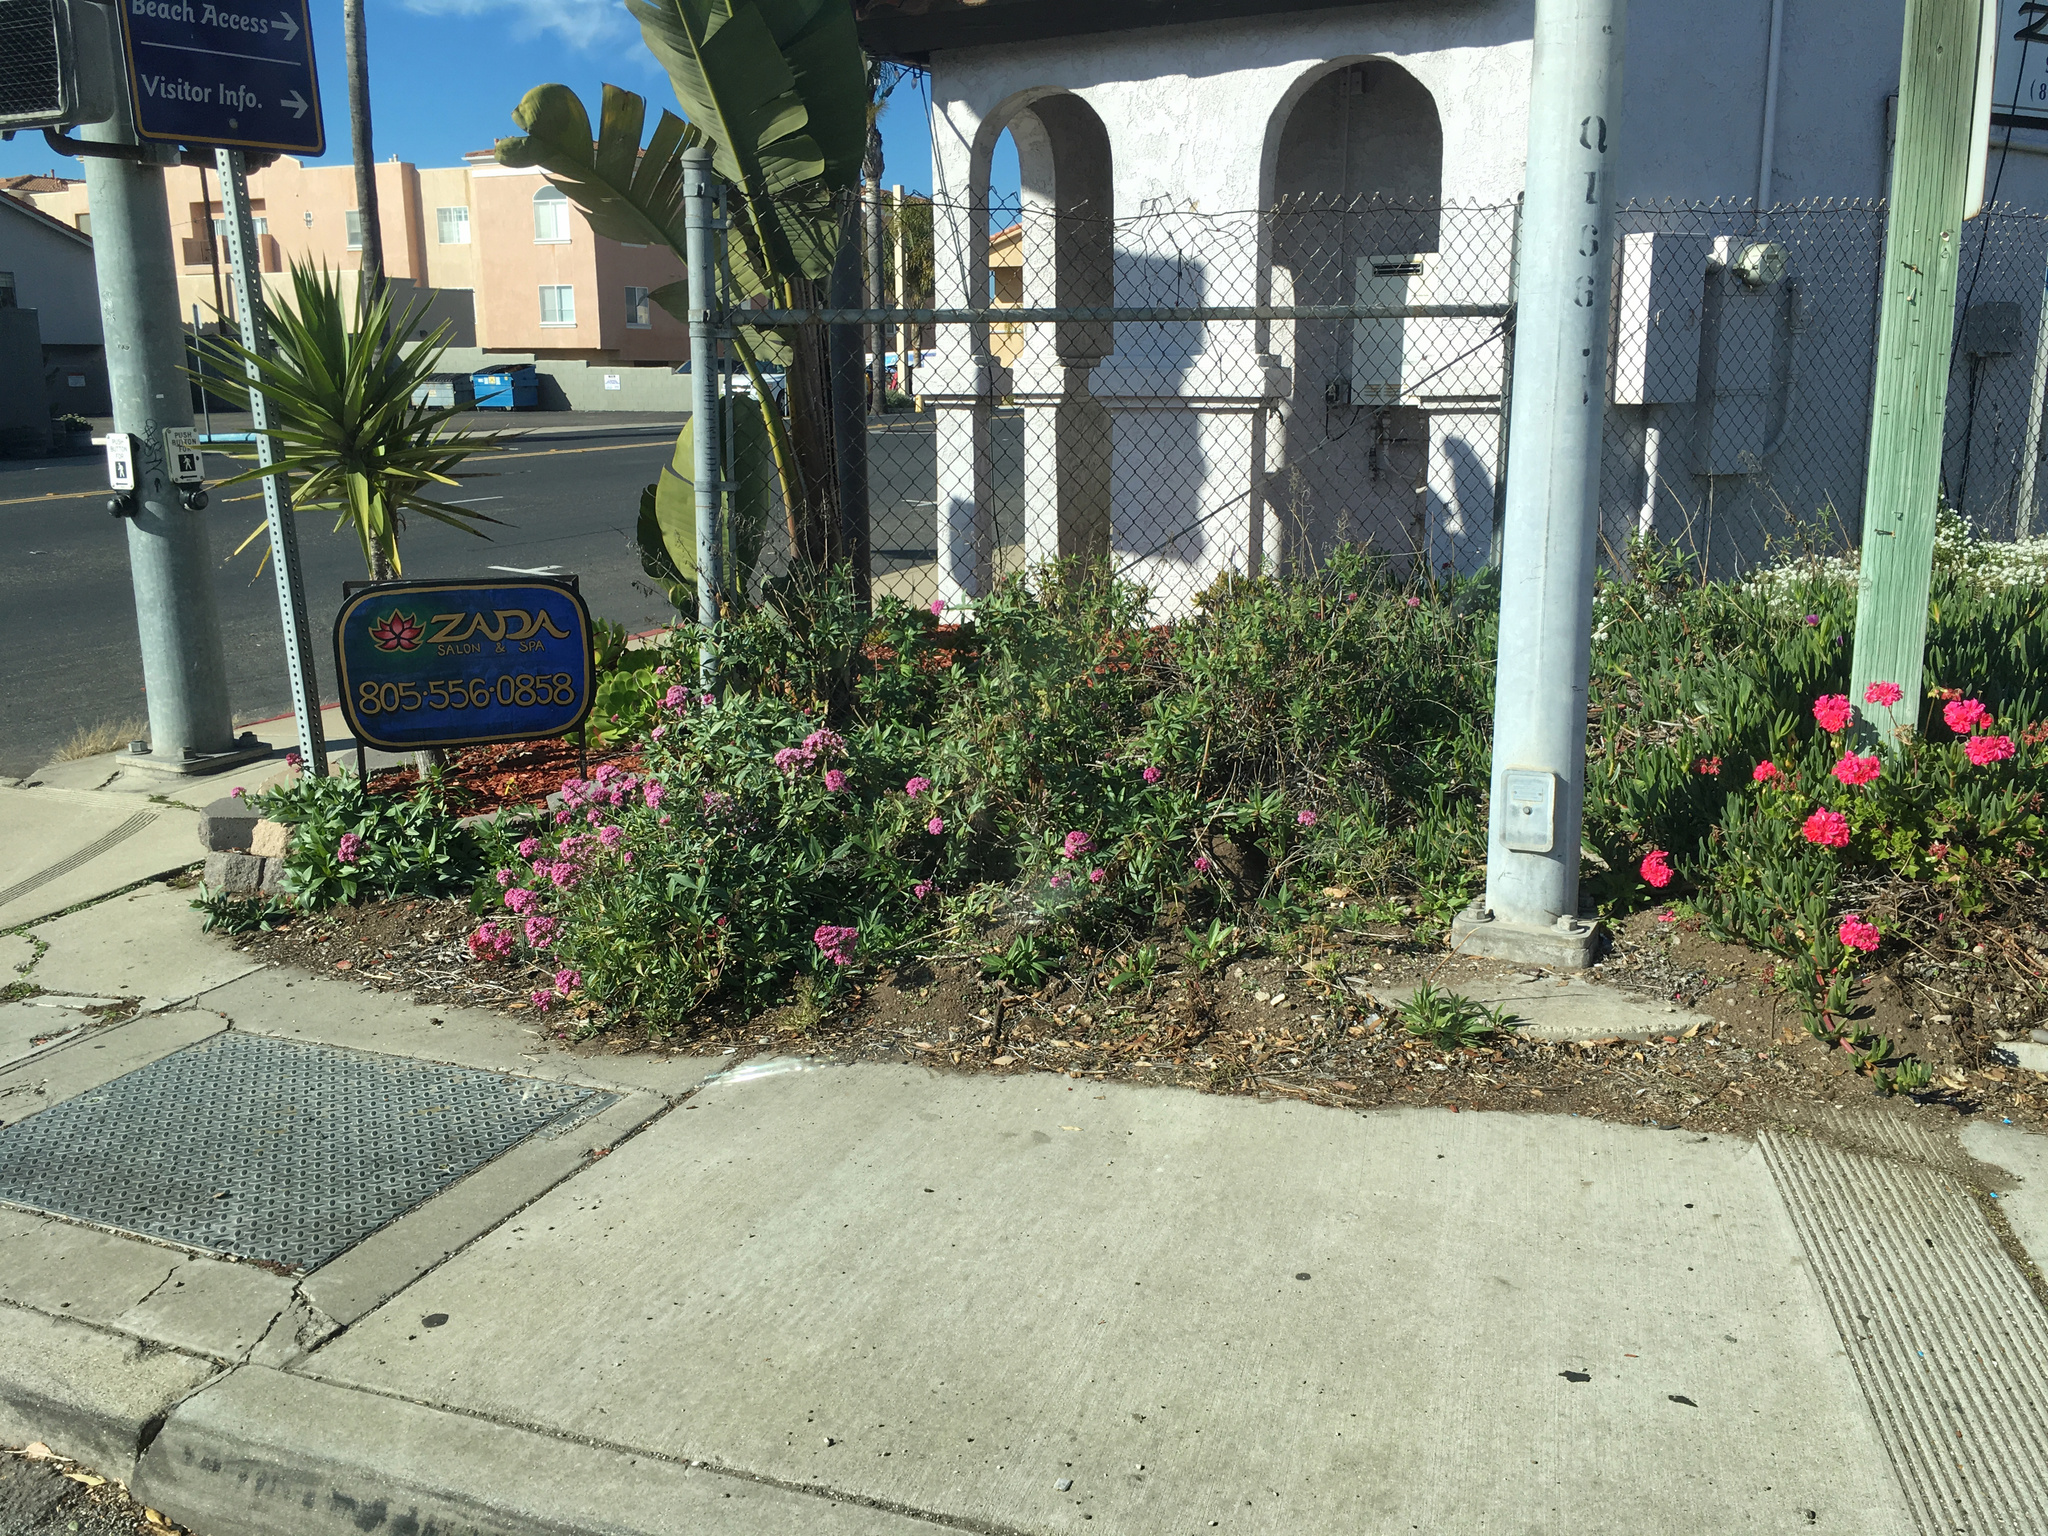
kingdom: Plantae
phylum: Tracheophyta
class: Magnoliopsida
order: Dipsacales
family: Caprifoliaceae
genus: Centranthus
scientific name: Centranthus ruber
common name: Red valerian
